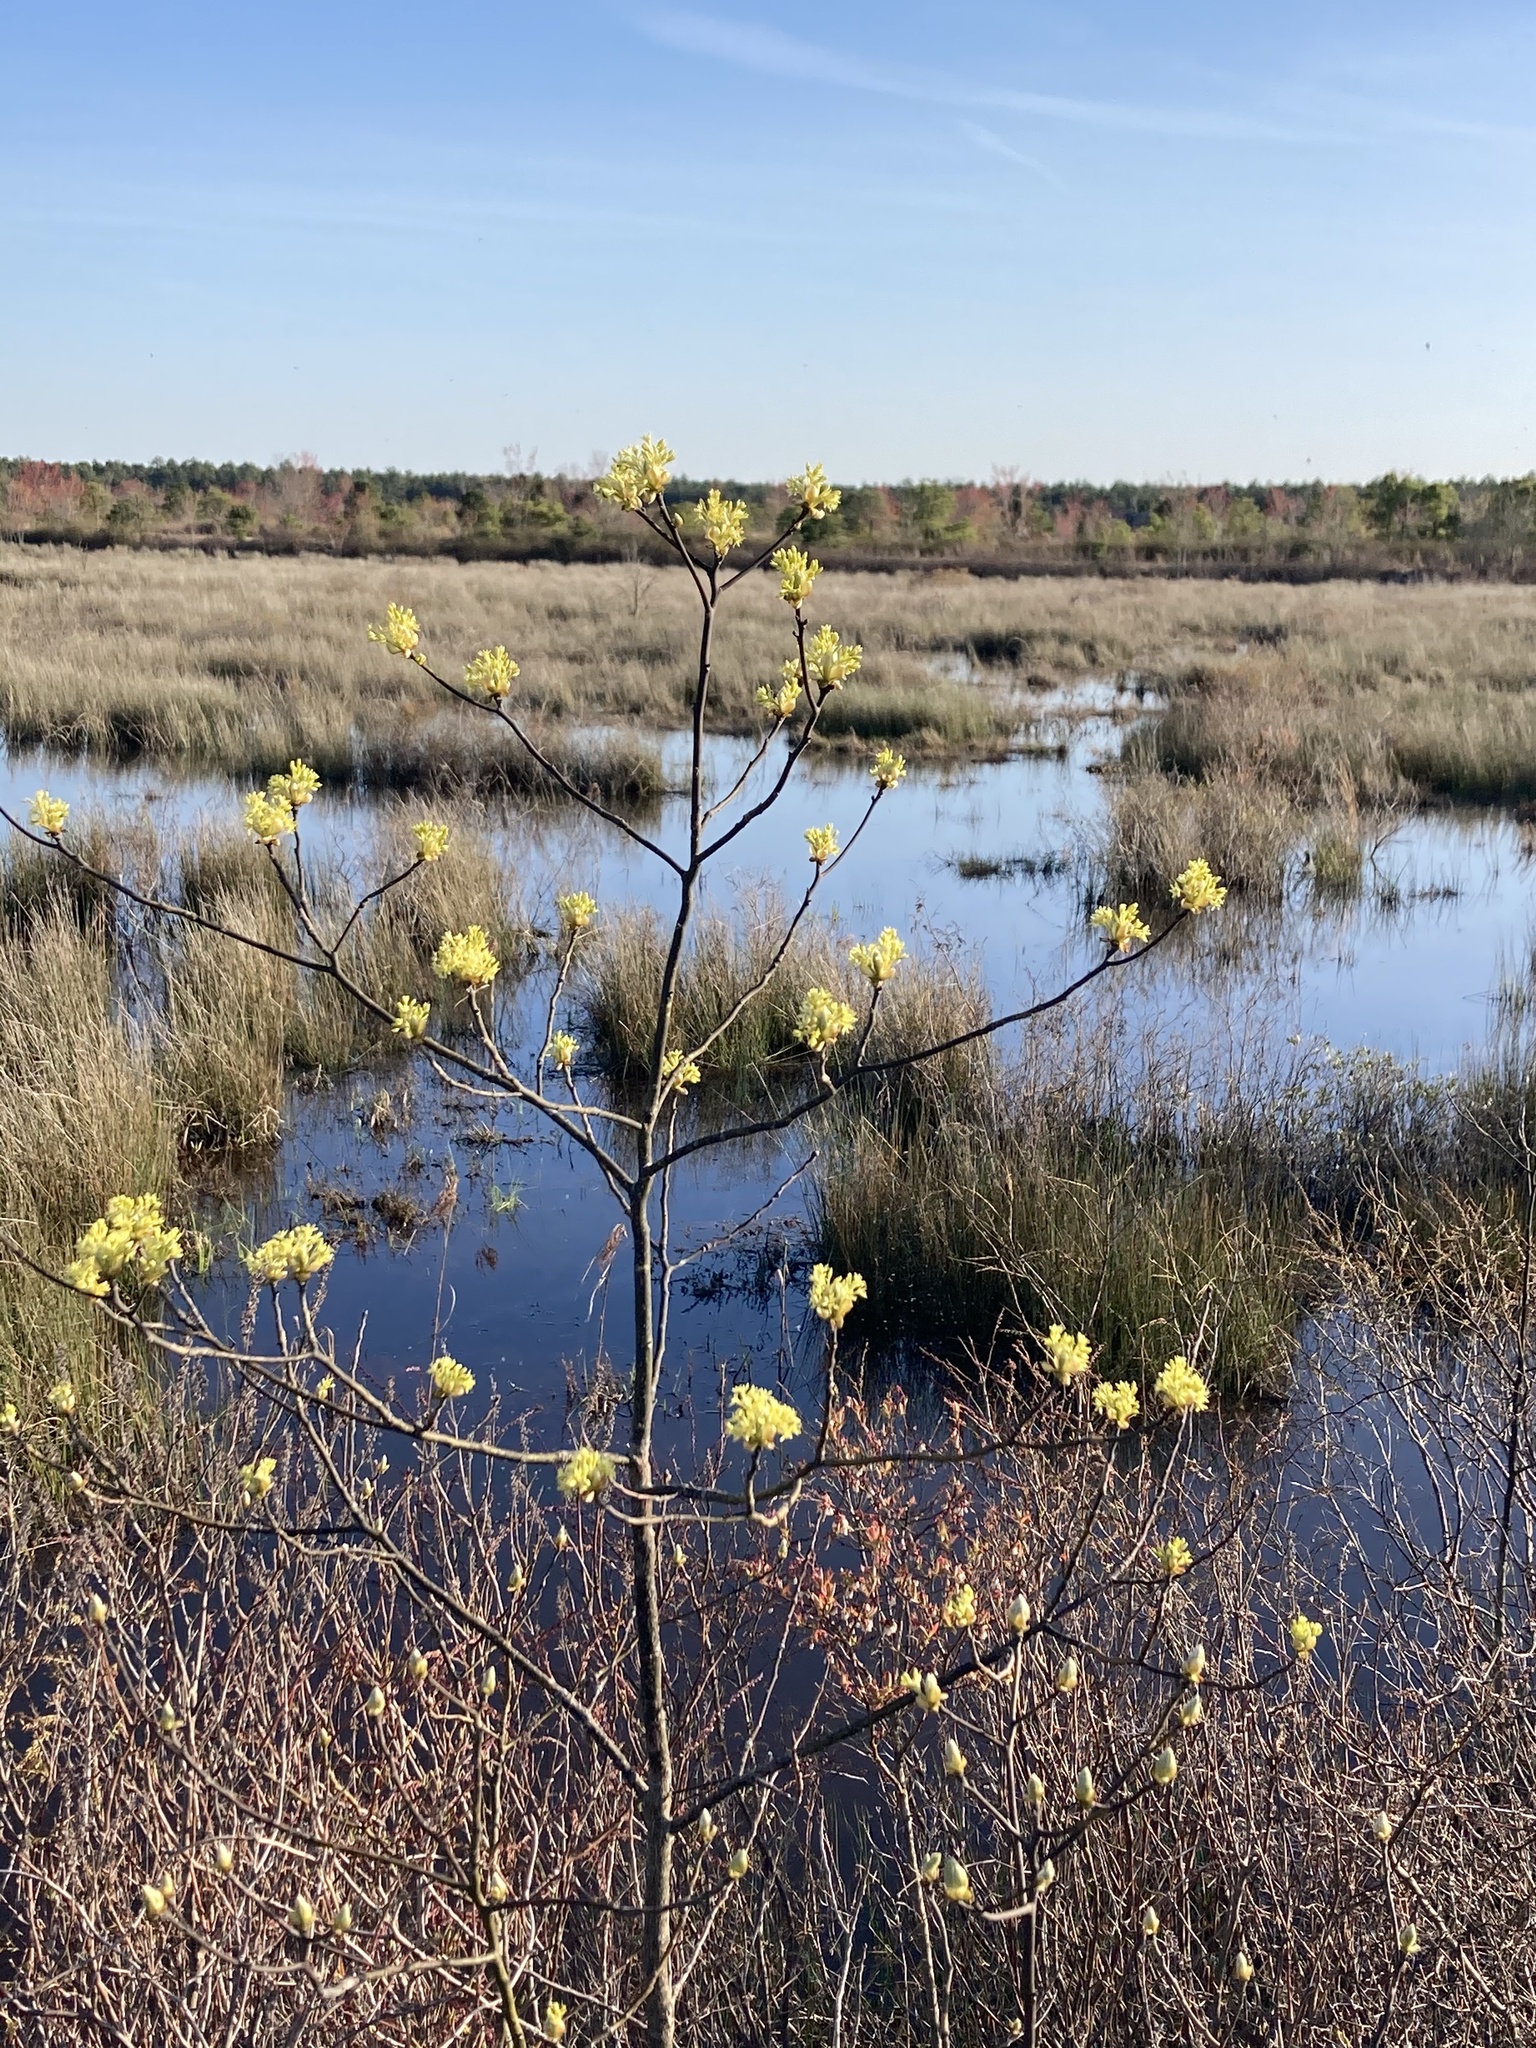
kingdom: Plantae
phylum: Tracheophyta
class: Magnoliopsida
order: Laurales
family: Lauraceae
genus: Sassafras
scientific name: Sassafras albidum
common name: Sassafras
